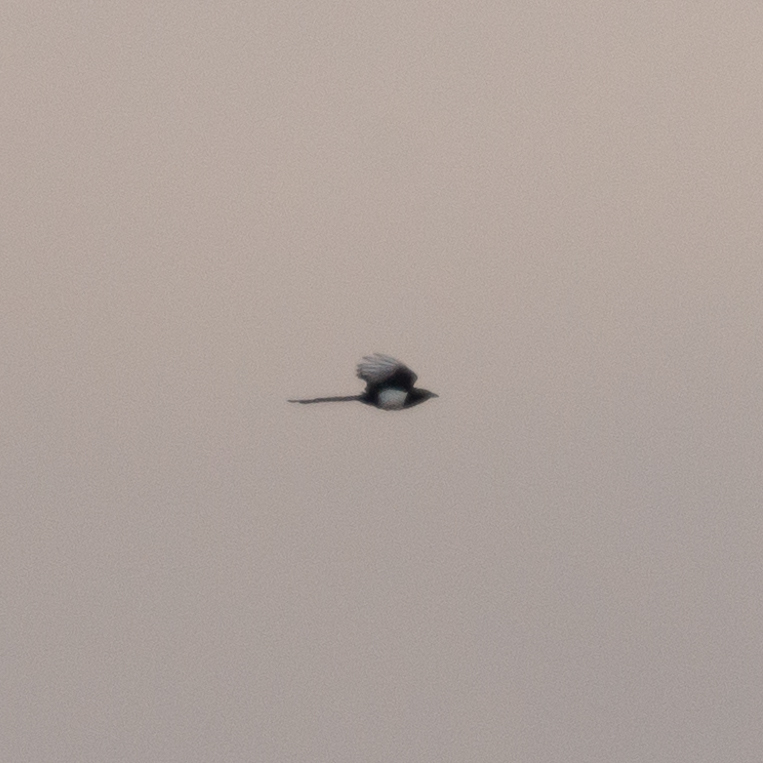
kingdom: Animalia
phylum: Chordata
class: Aves
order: Passeriformes
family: Corvidae
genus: Pica
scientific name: Pica pica
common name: Eurasian magpie
